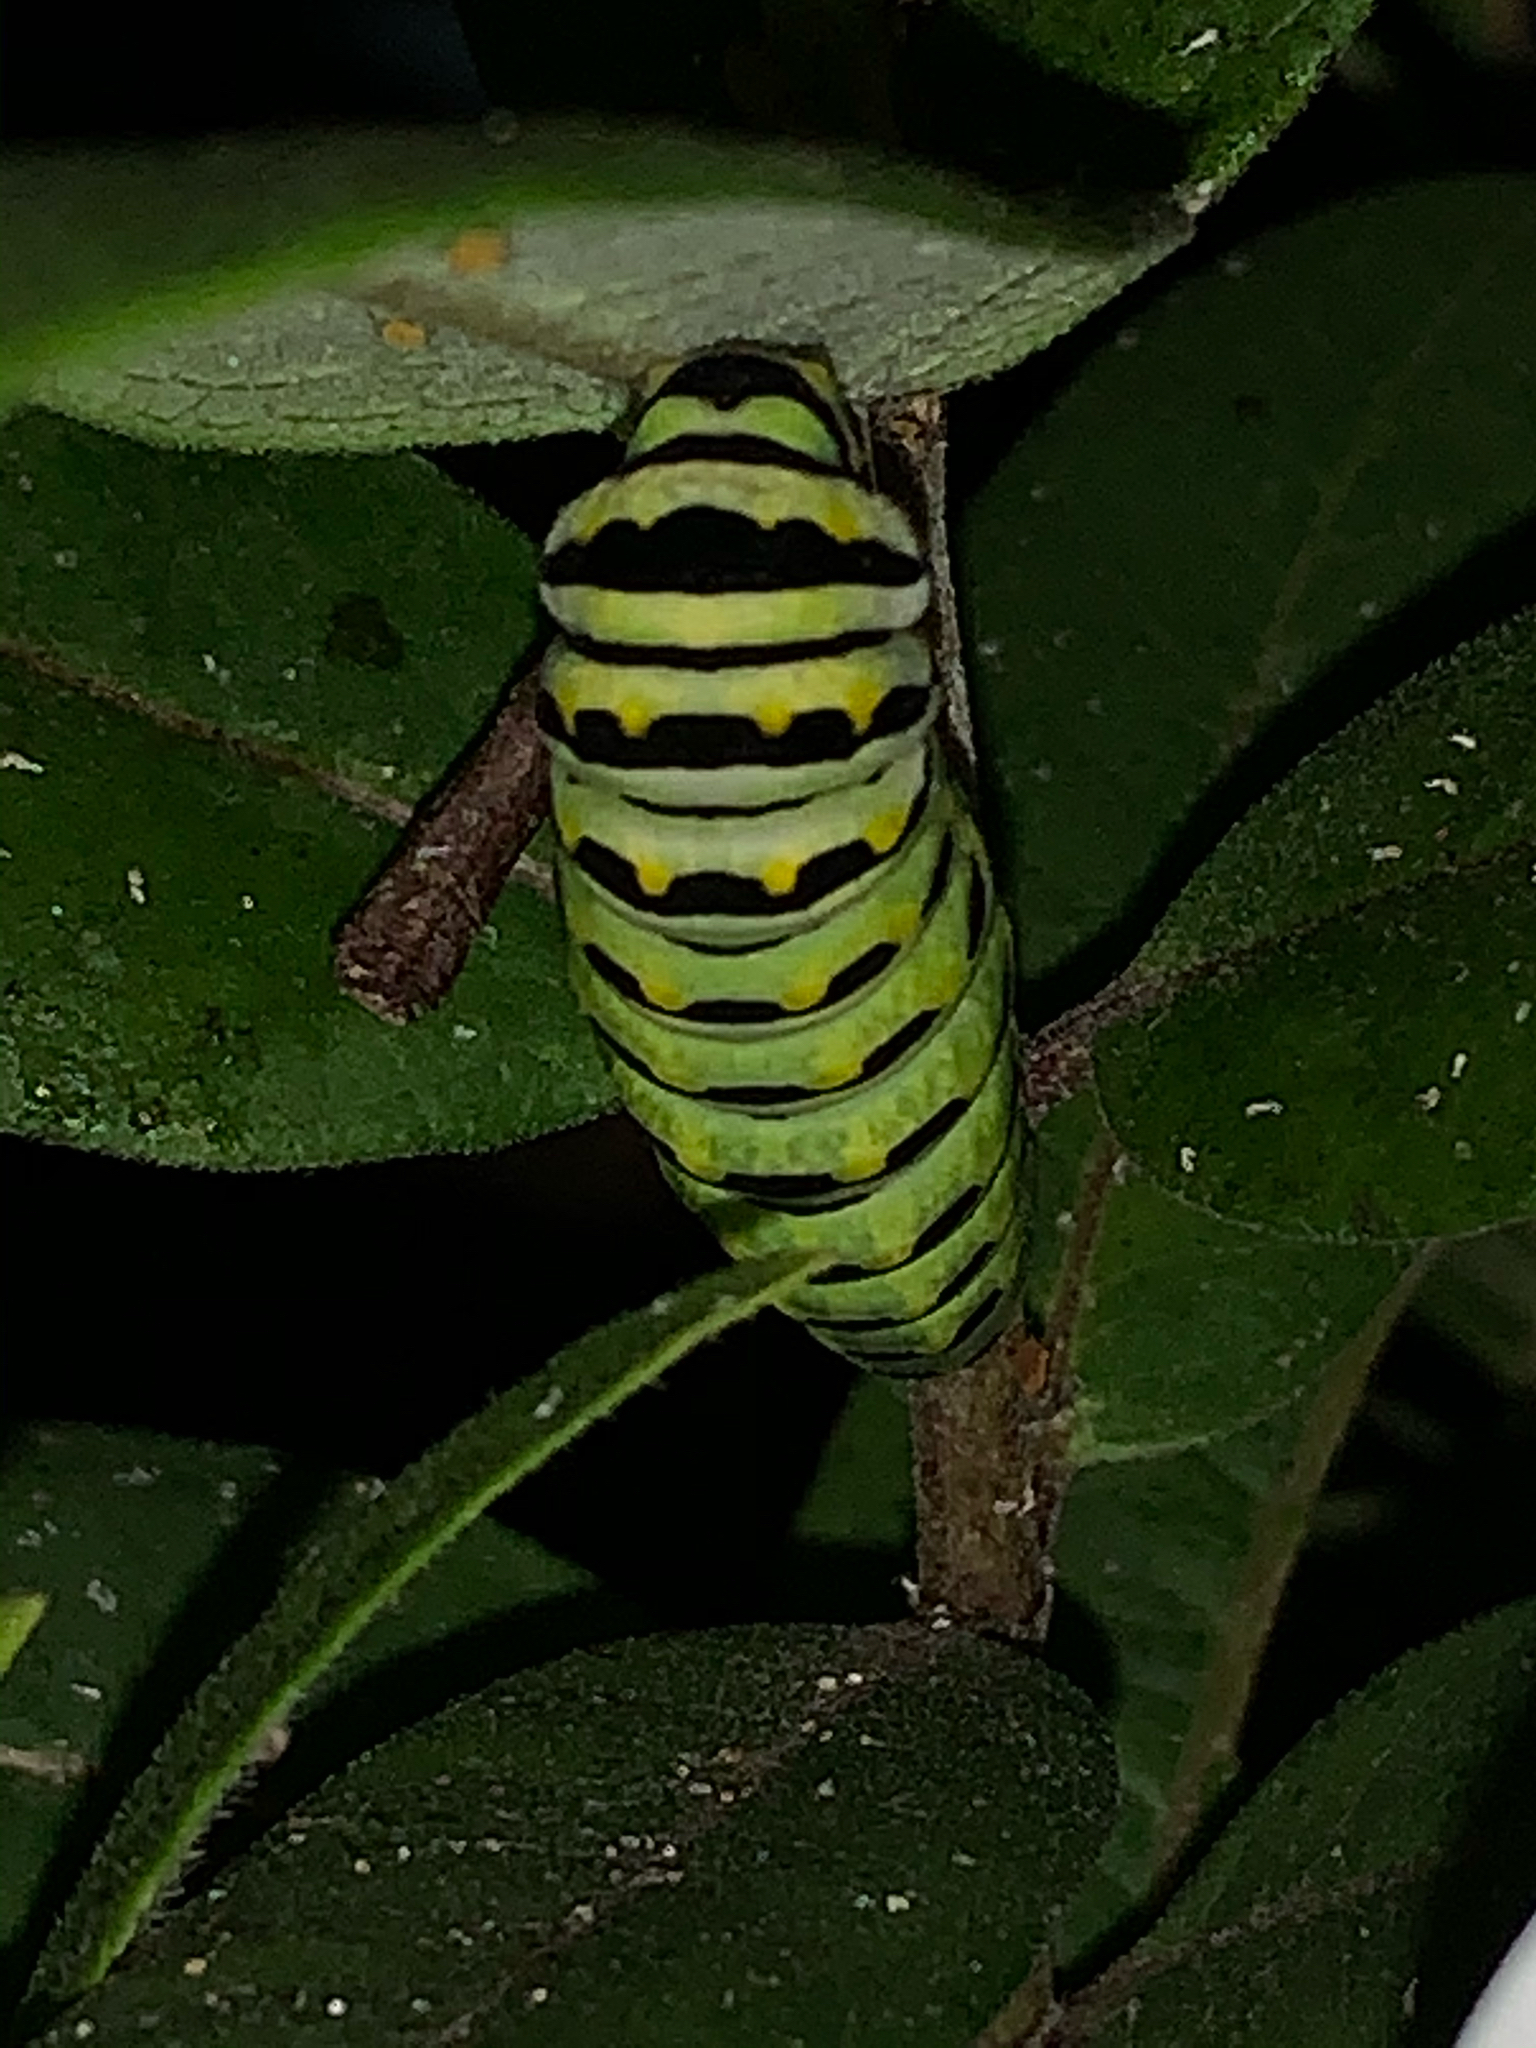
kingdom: Animalia
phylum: Arthropoda
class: Insecta
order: Lepidoptera
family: Papilionidae
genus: Papilio
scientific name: Papilio polyxenes
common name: Black swallowtail
